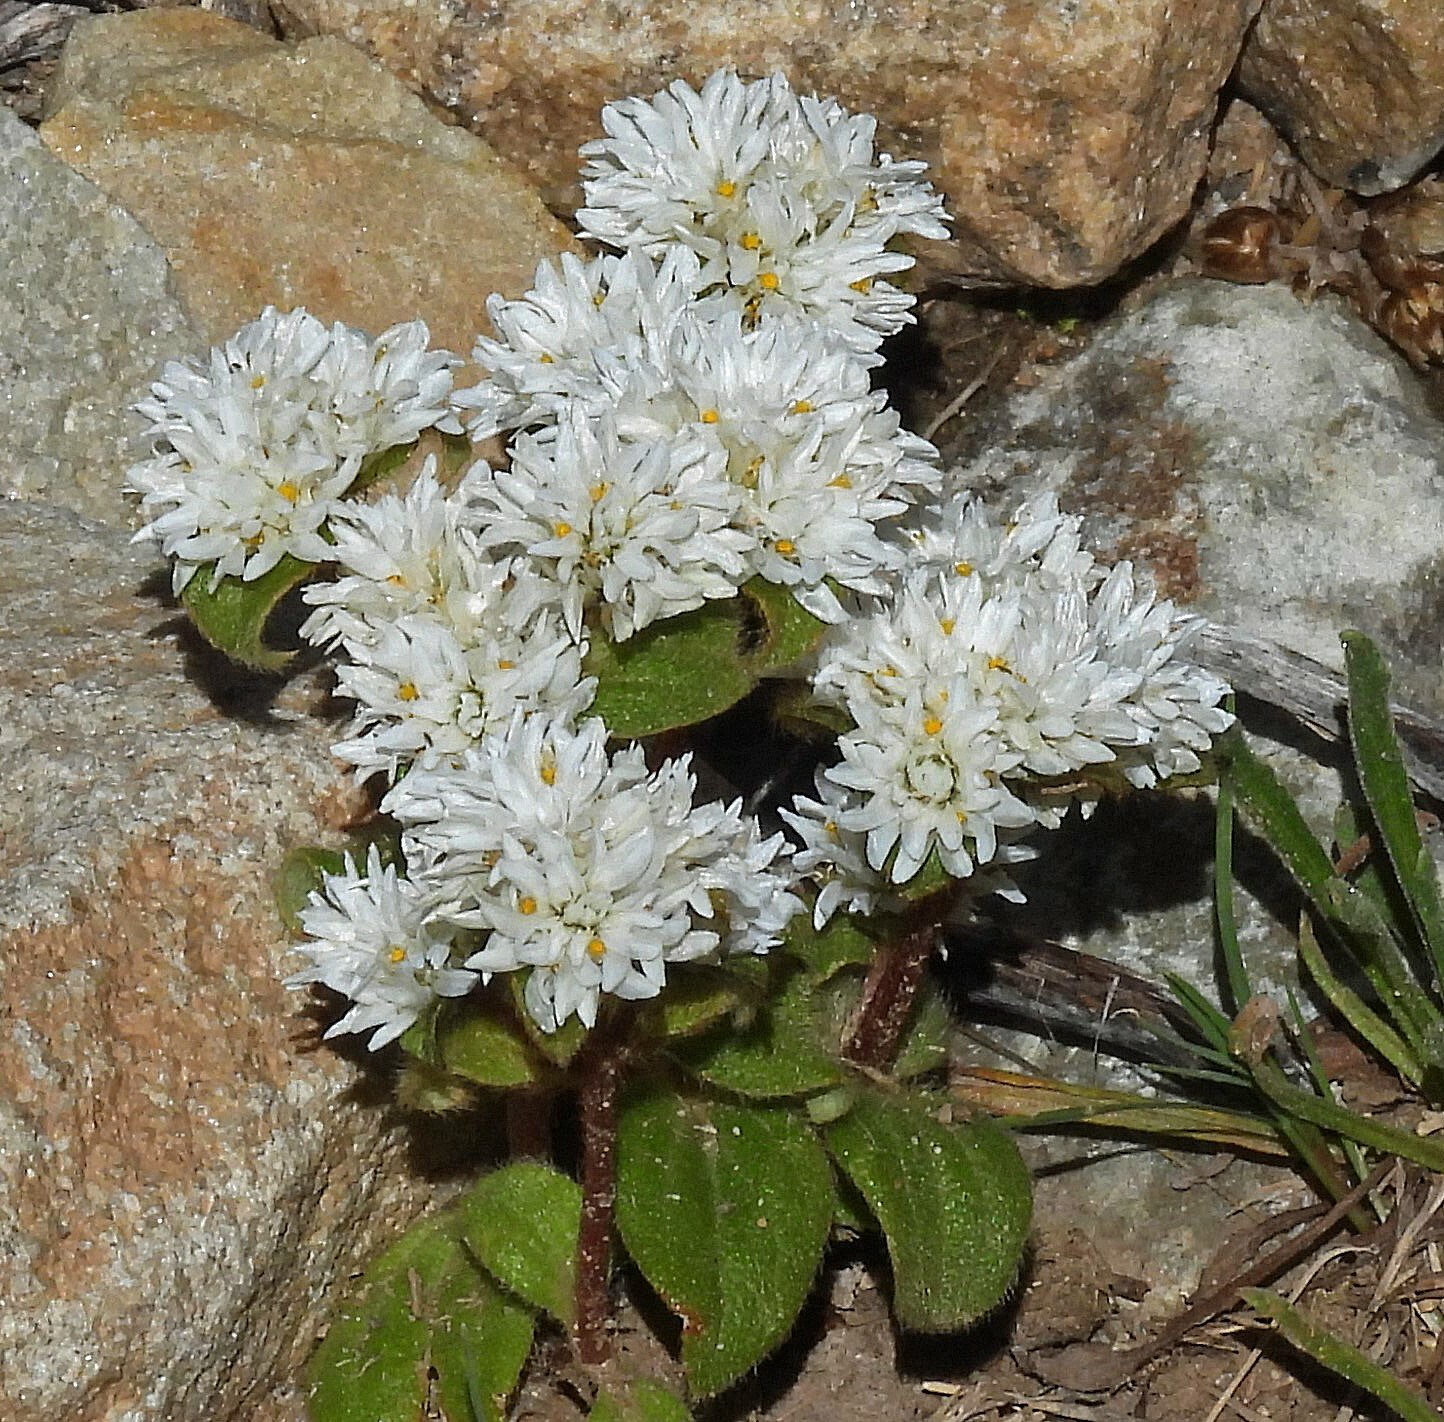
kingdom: Plantae
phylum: Tracheophyta
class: Magnoliopsida
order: Caryophyllales
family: Amaranthaceae
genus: Gomphrena
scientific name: Gomphrena phaeotricha
